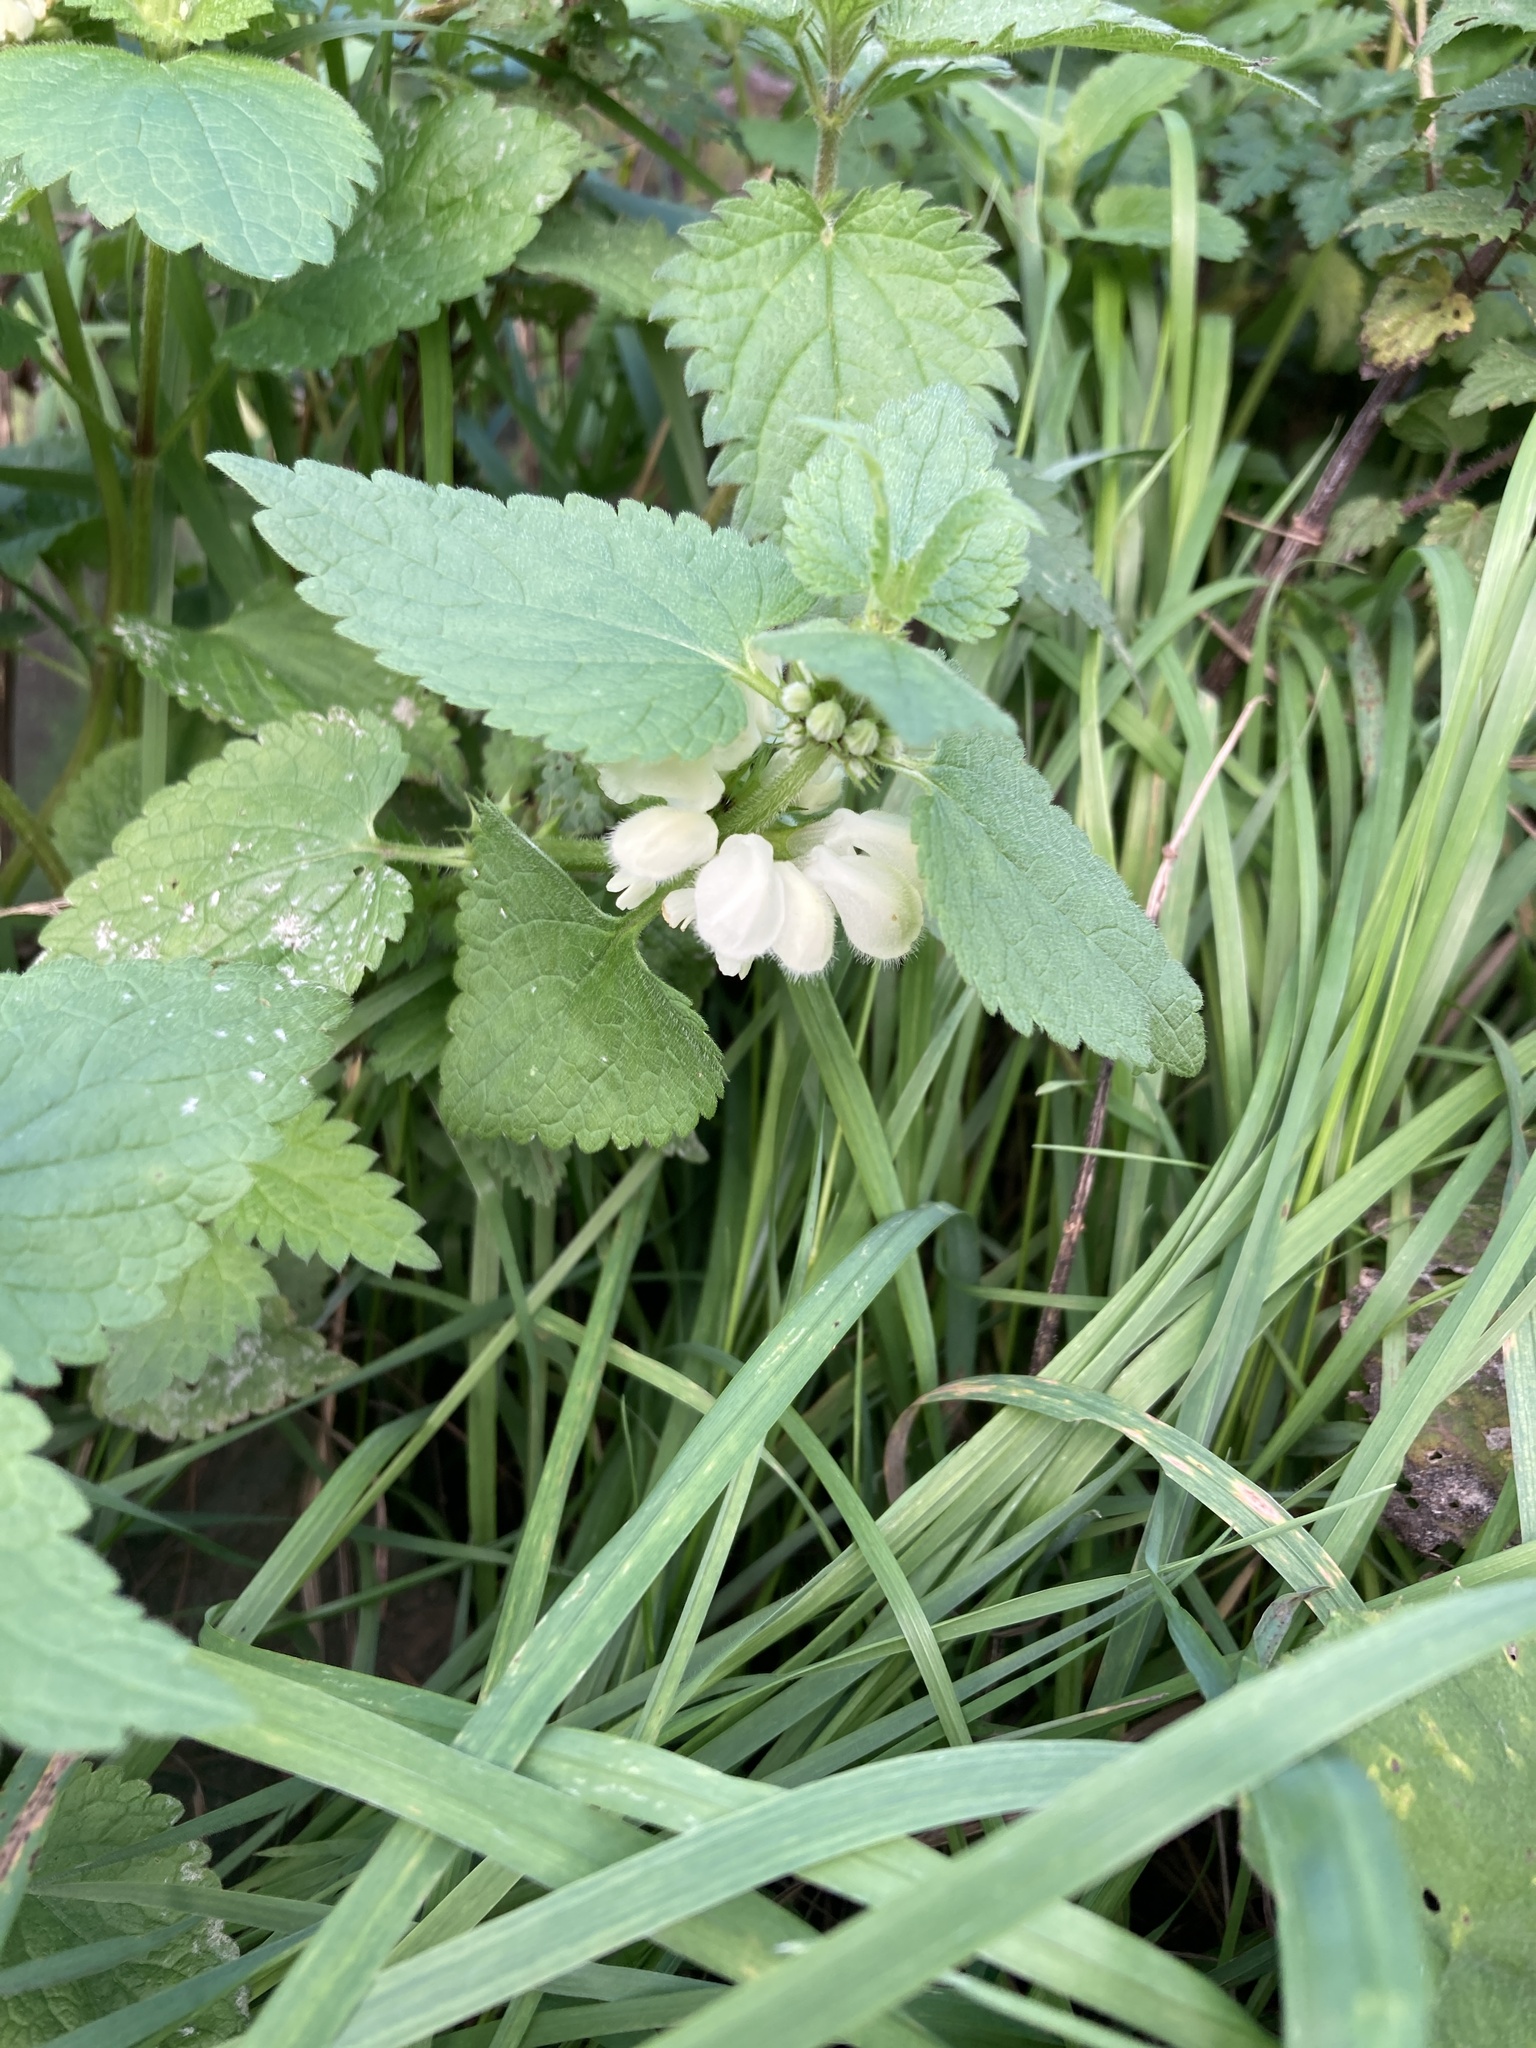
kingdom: Plantae
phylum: Tracheophyta
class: Magnoliopsida
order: Lamiales
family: Lamiaceae
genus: Lamium
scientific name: Lamium album
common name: White dead-nettle
